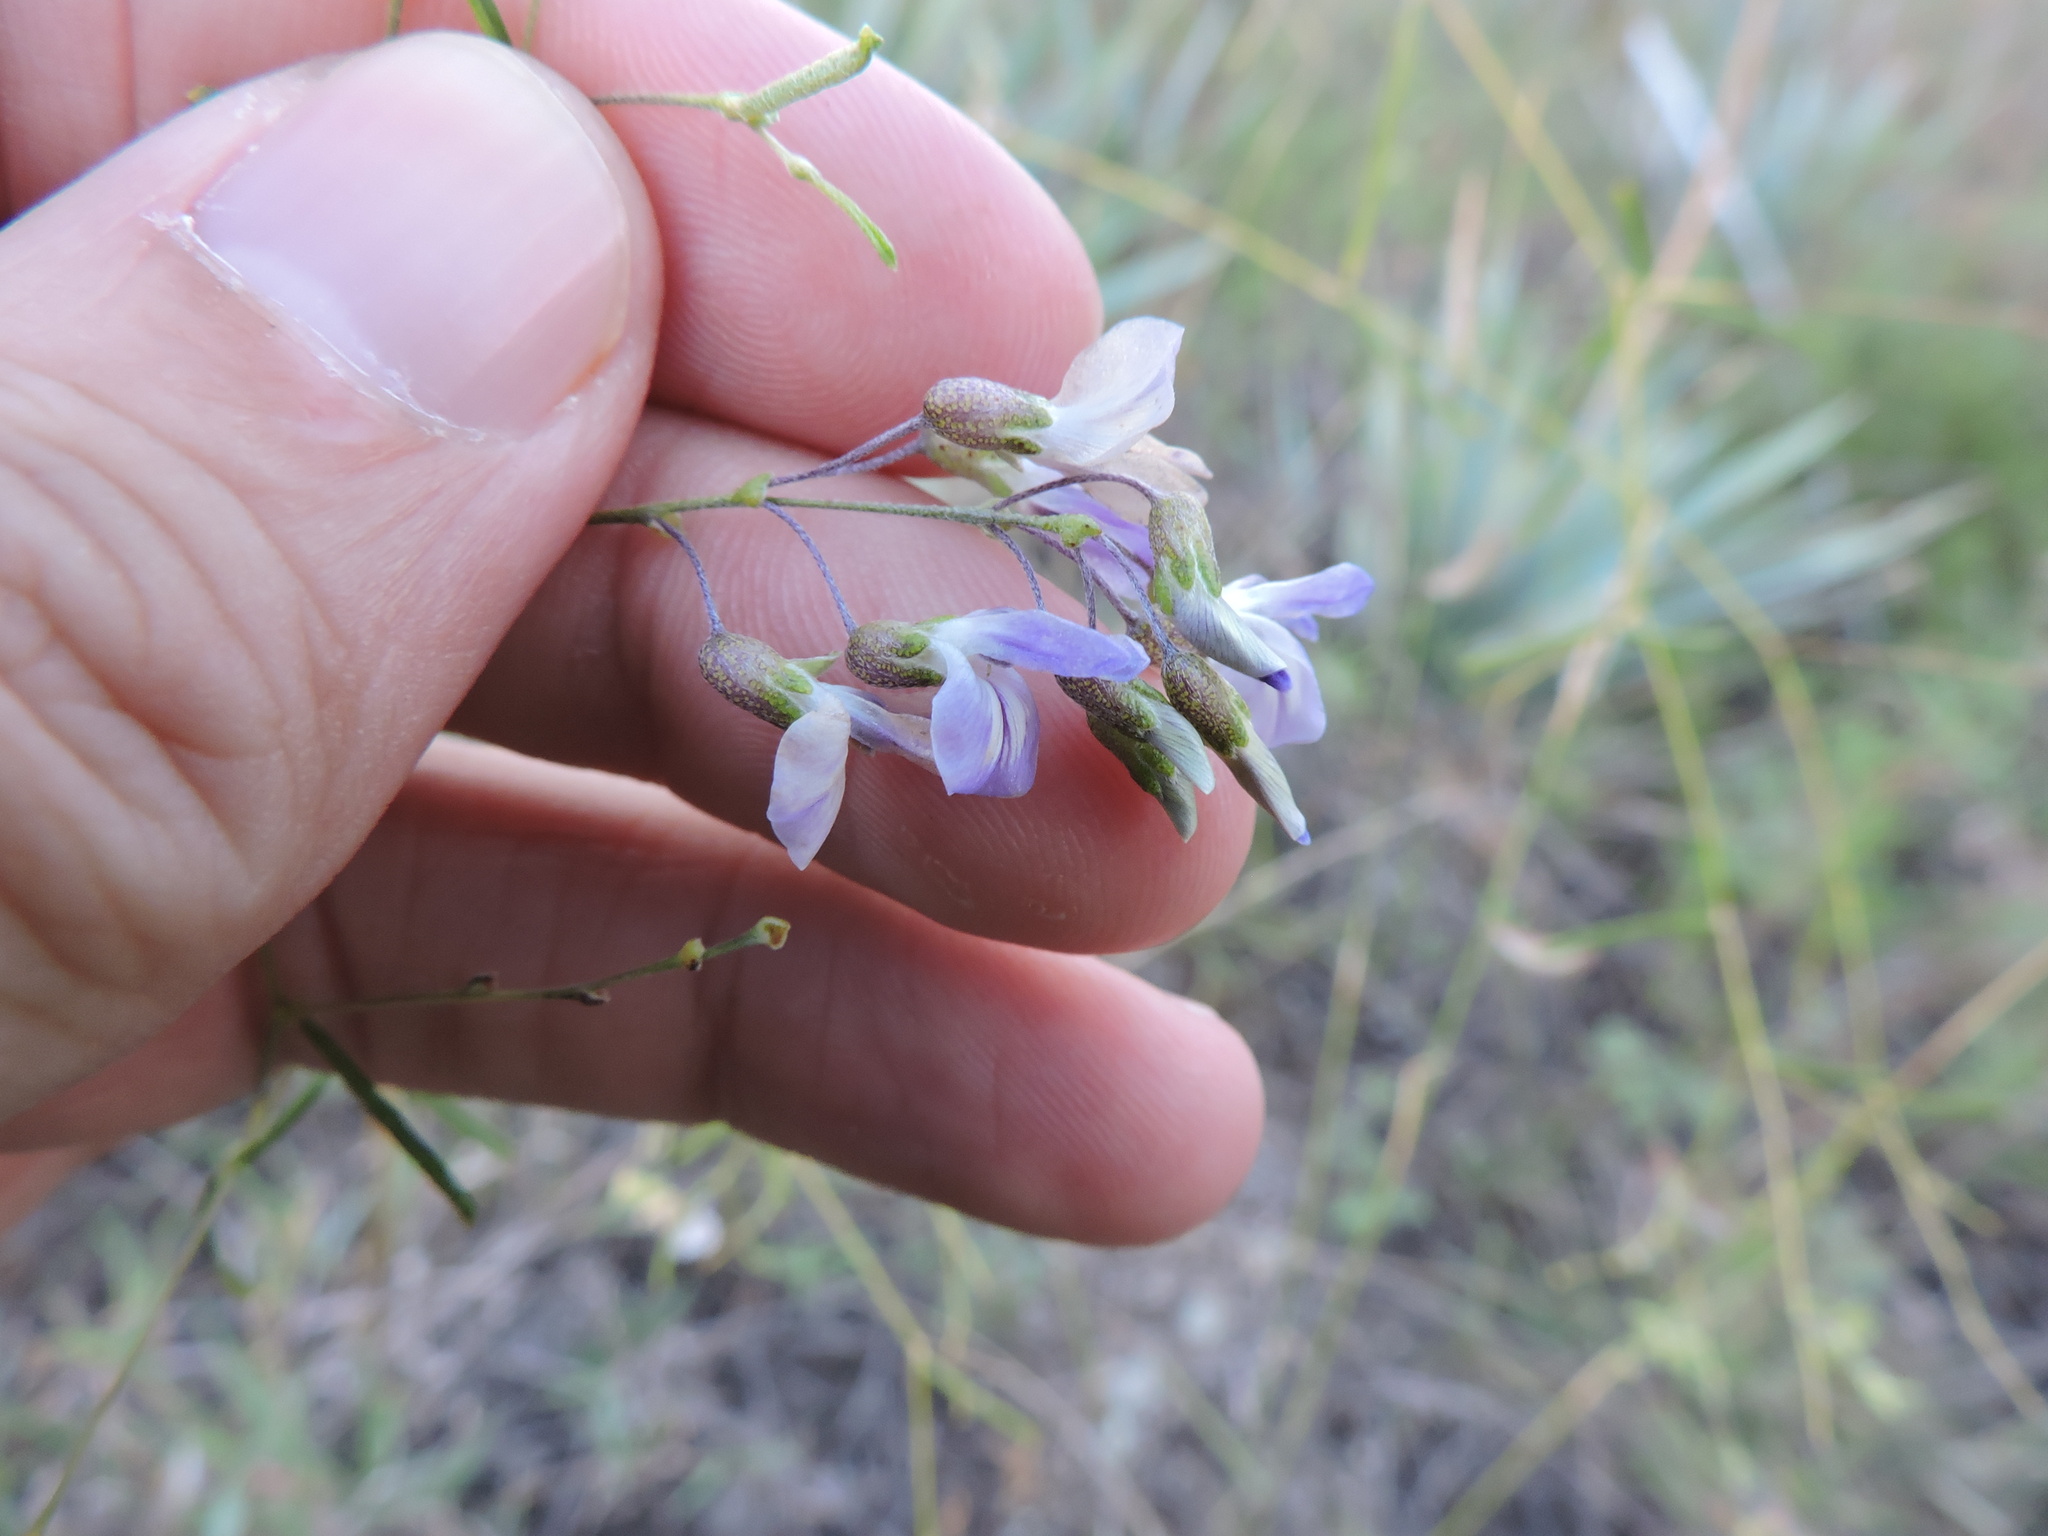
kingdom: Plantae
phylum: Tracheophyta
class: Magnoliopsida
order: Fabales
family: Fabaceae
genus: Pediomelum
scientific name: Pediomelum linearifolium
